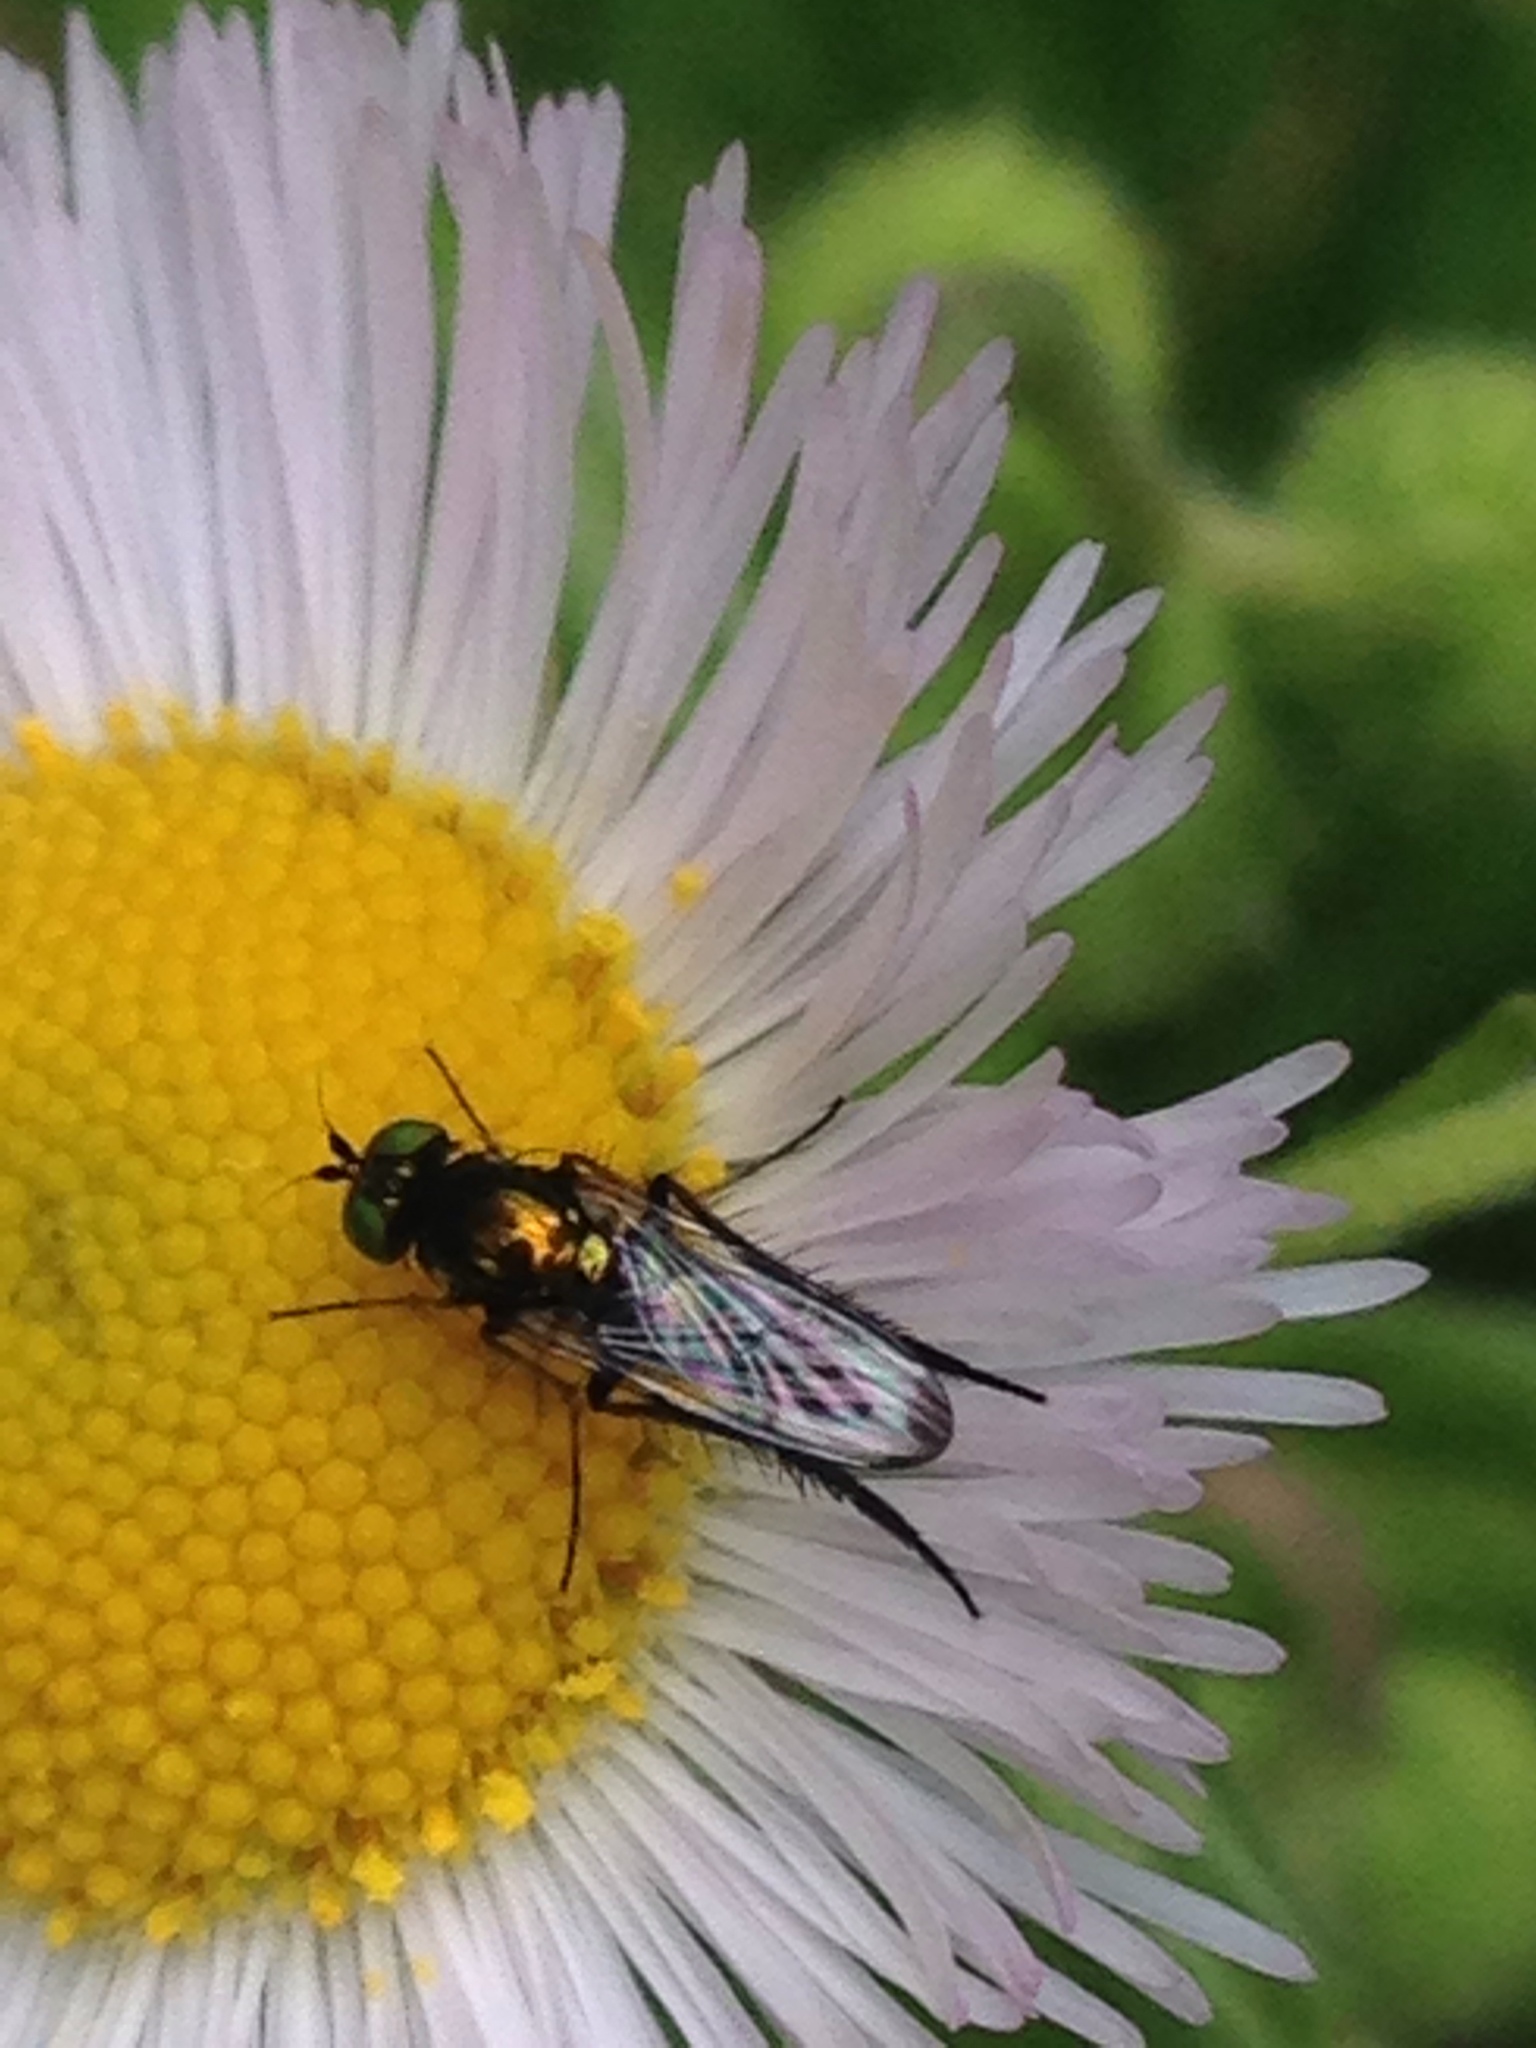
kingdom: Animalia
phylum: Arthropoda
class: Insecta
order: Diptera
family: Dolichopodidae
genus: Dolichopus
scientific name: Dolichopus setifer
